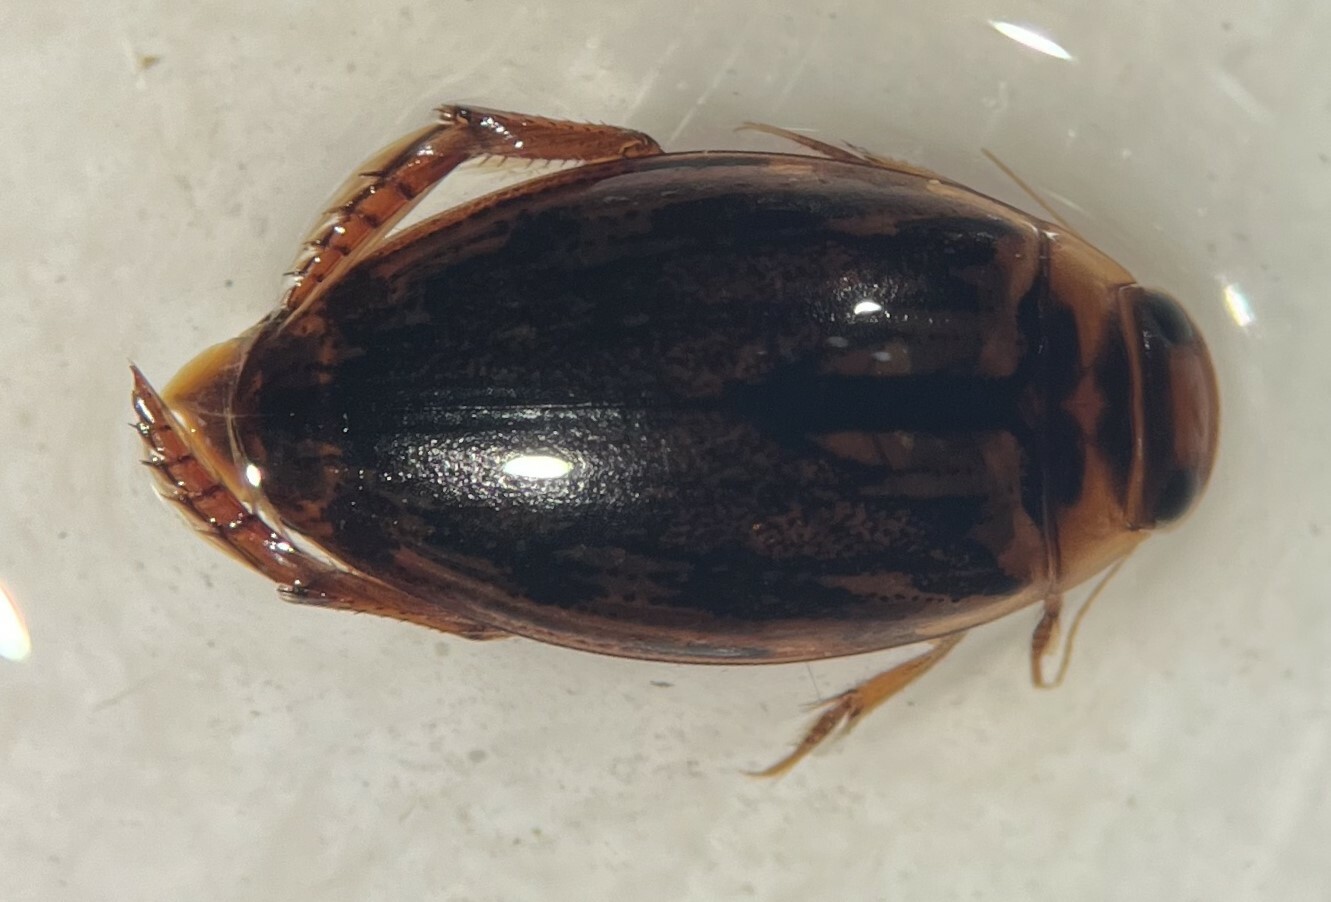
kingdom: Animalia
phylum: Arthropoda
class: Insecta
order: Coleoptera
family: Dytiscidae
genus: Coptotomus
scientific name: Coptotomus venustus
